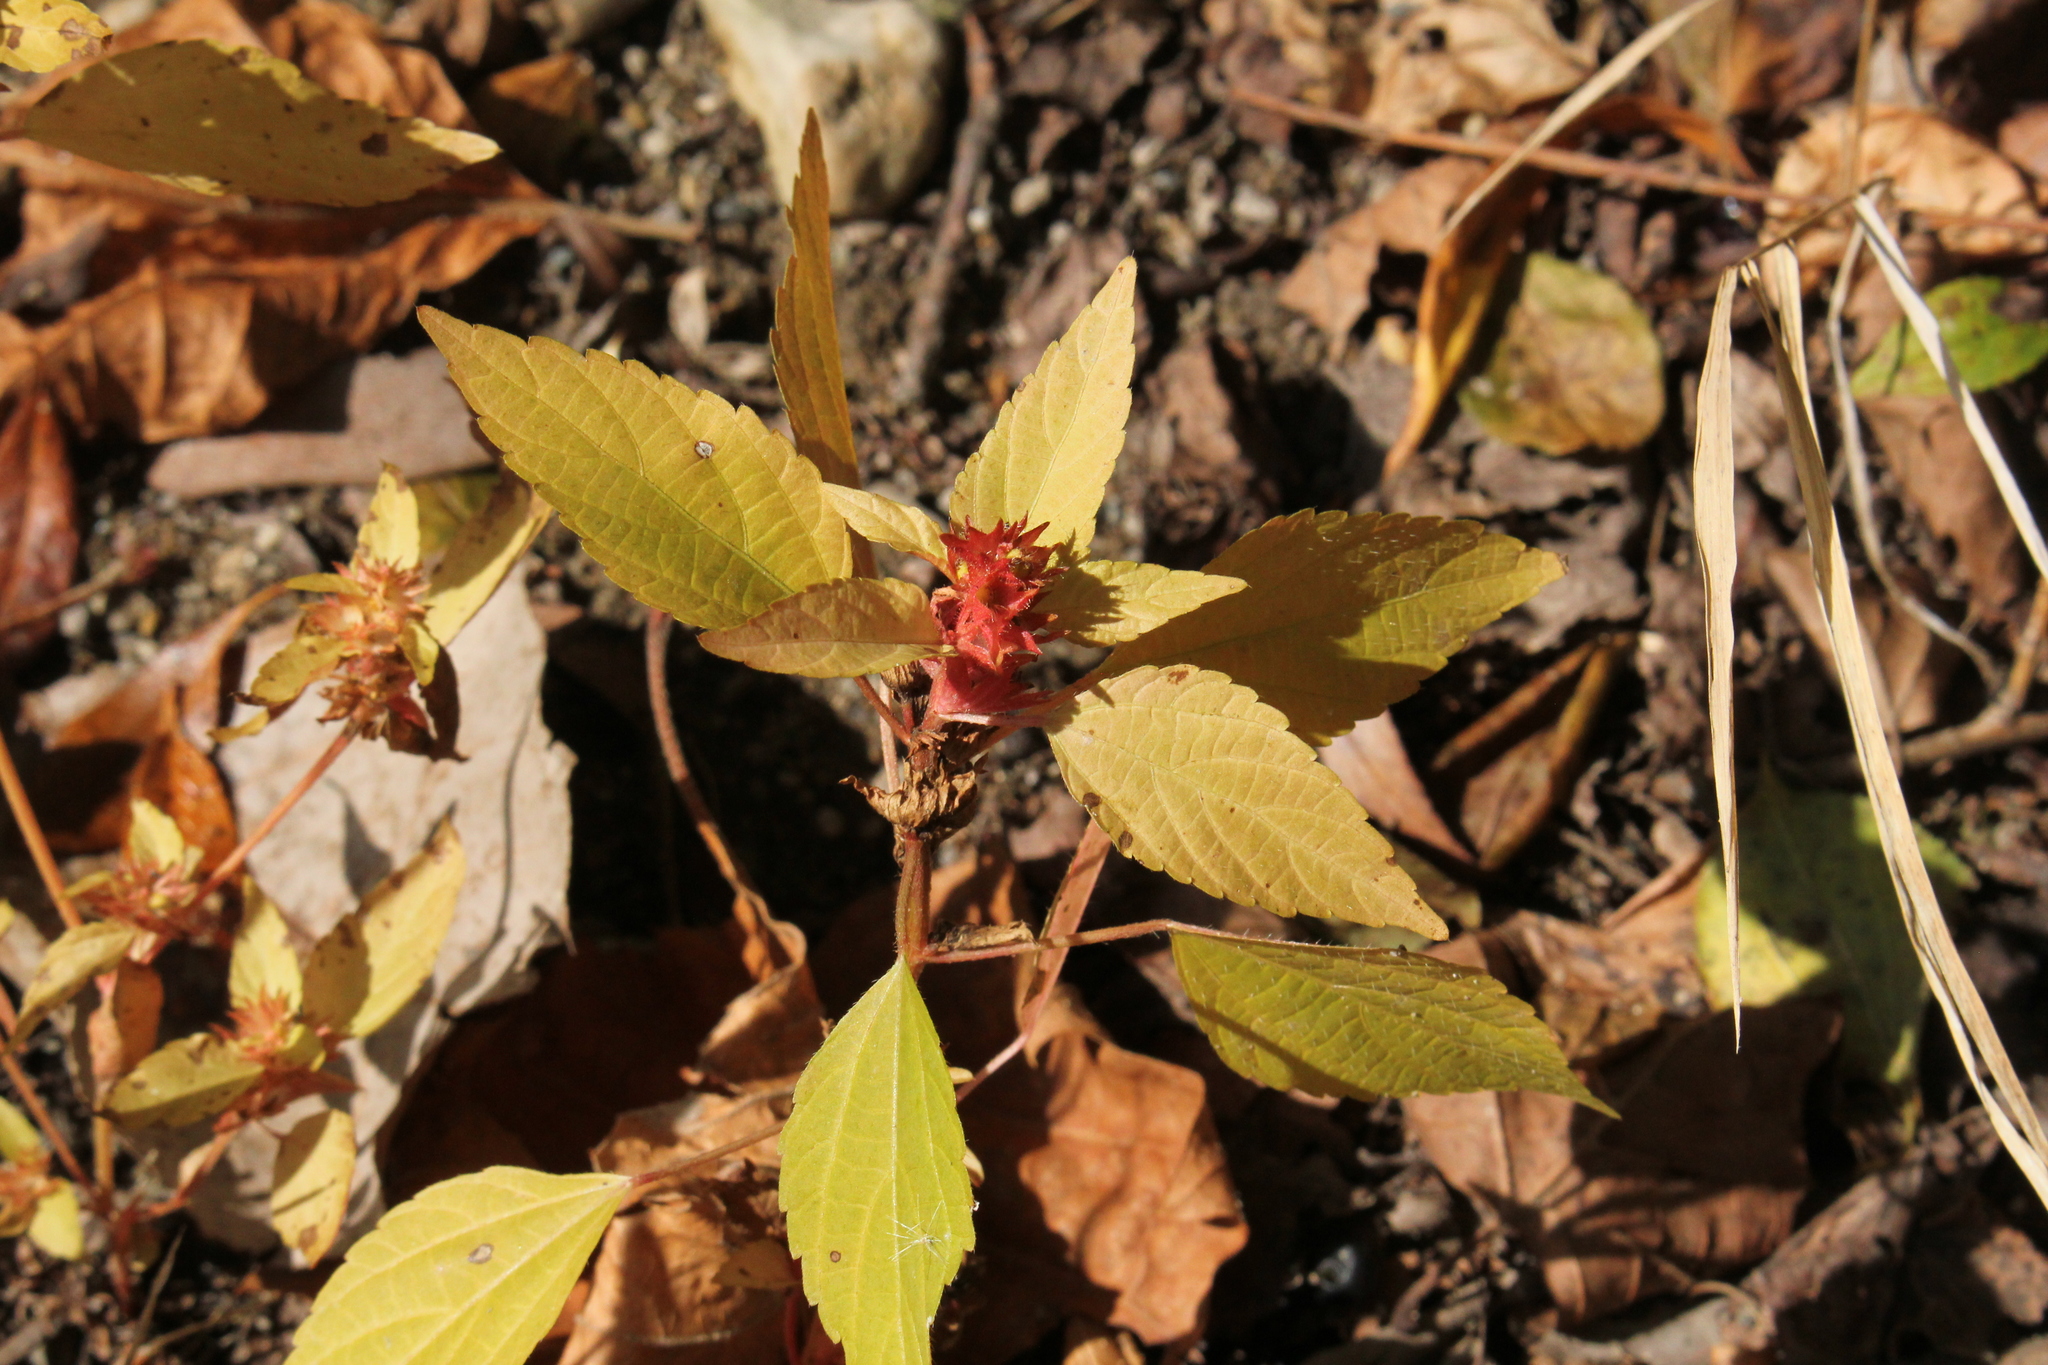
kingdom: Plantae
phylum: Tracheophyta
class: Magnoliopsida
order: Malpighiales
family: Euphorbiaceae
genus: Acalypha
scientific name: Acalypha rhomboidea
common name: Rhombic copperleaf
